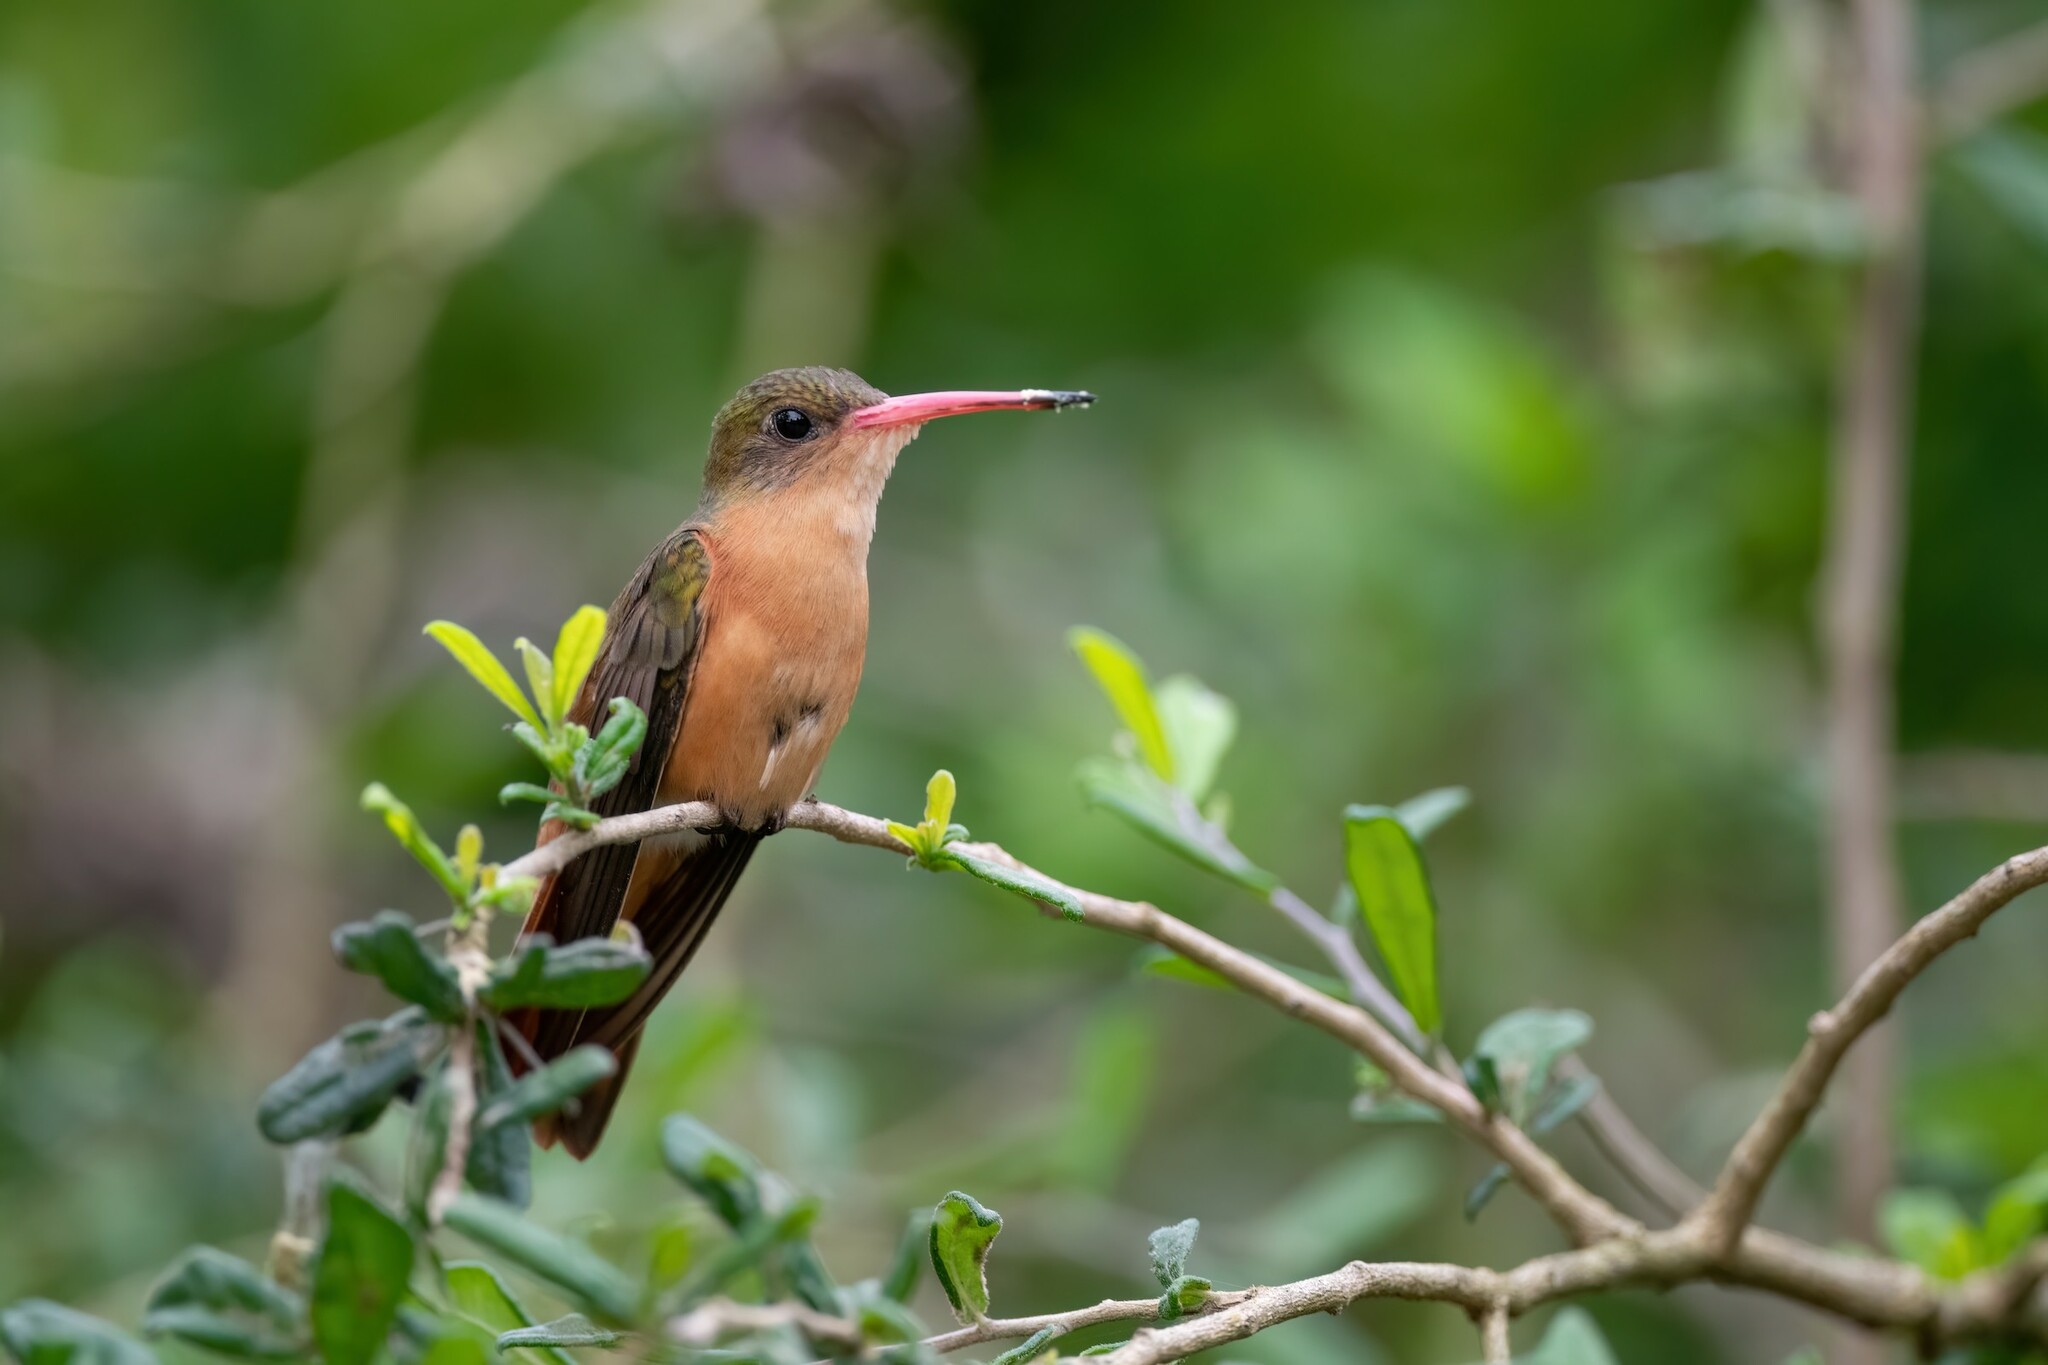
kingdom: Animalia
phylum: Chordata
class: Aves
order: Apodiformes
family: Trochilidae
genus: Amazilia
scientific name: Amazilia rutila
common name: Cinnamon hummingbird
